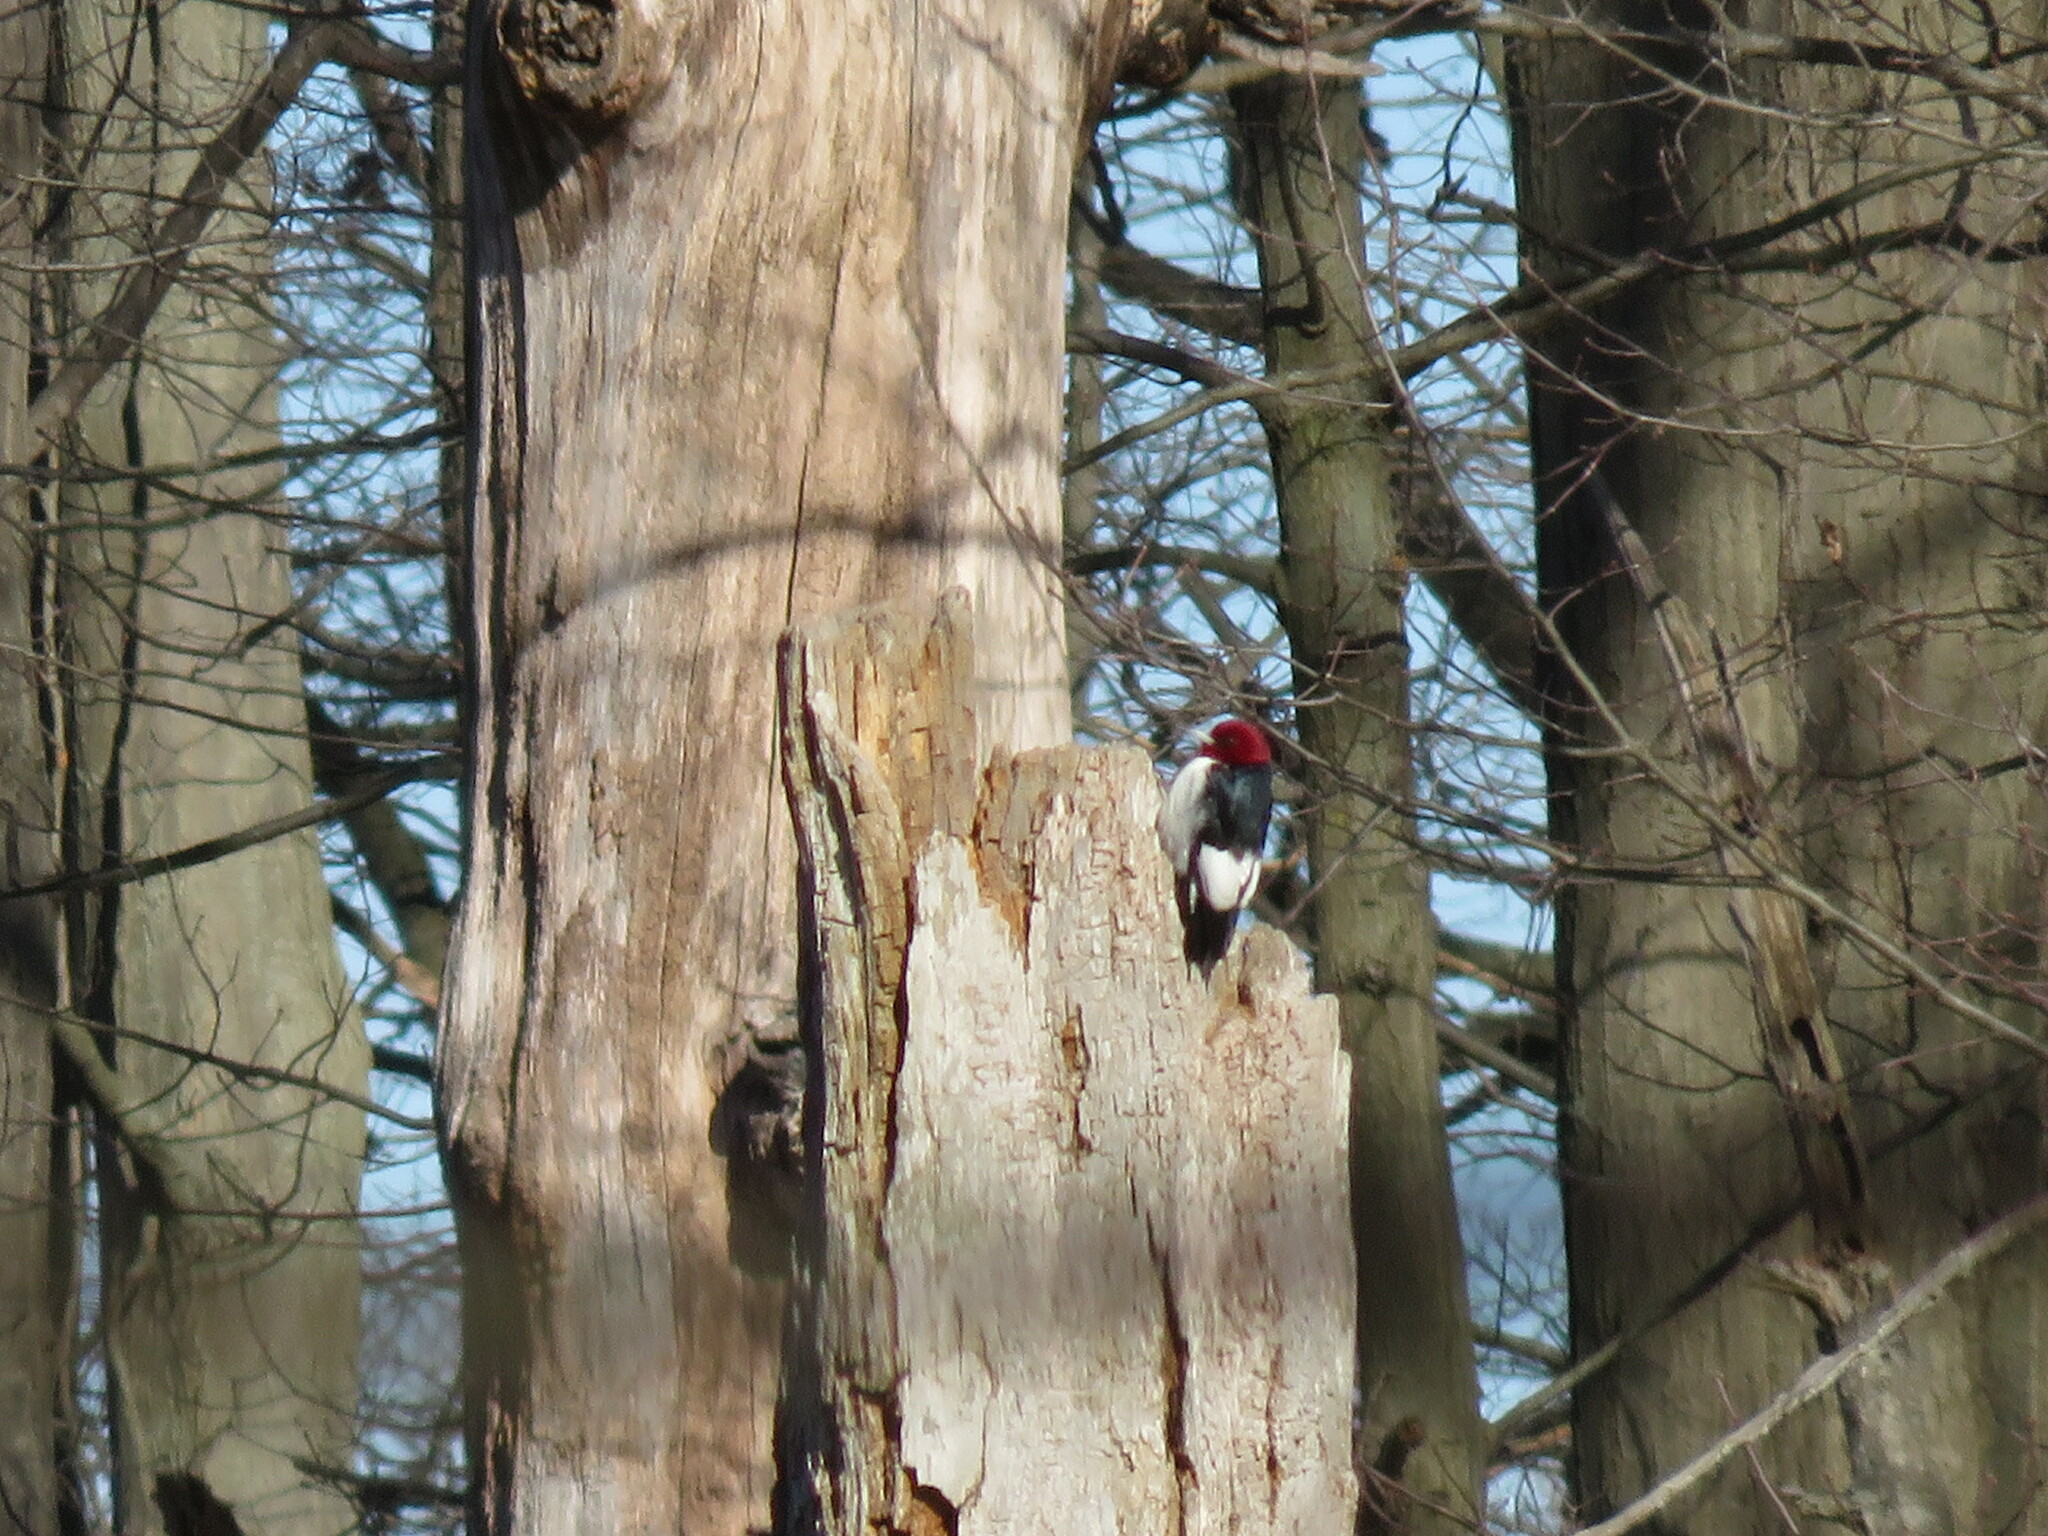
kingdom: Animalia
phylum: Chordata
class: Aves
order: Piciformes
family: Picidae
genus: Melanerpes
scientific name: Melanerpes erythrocephalus
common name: Red-headed woodpecker
